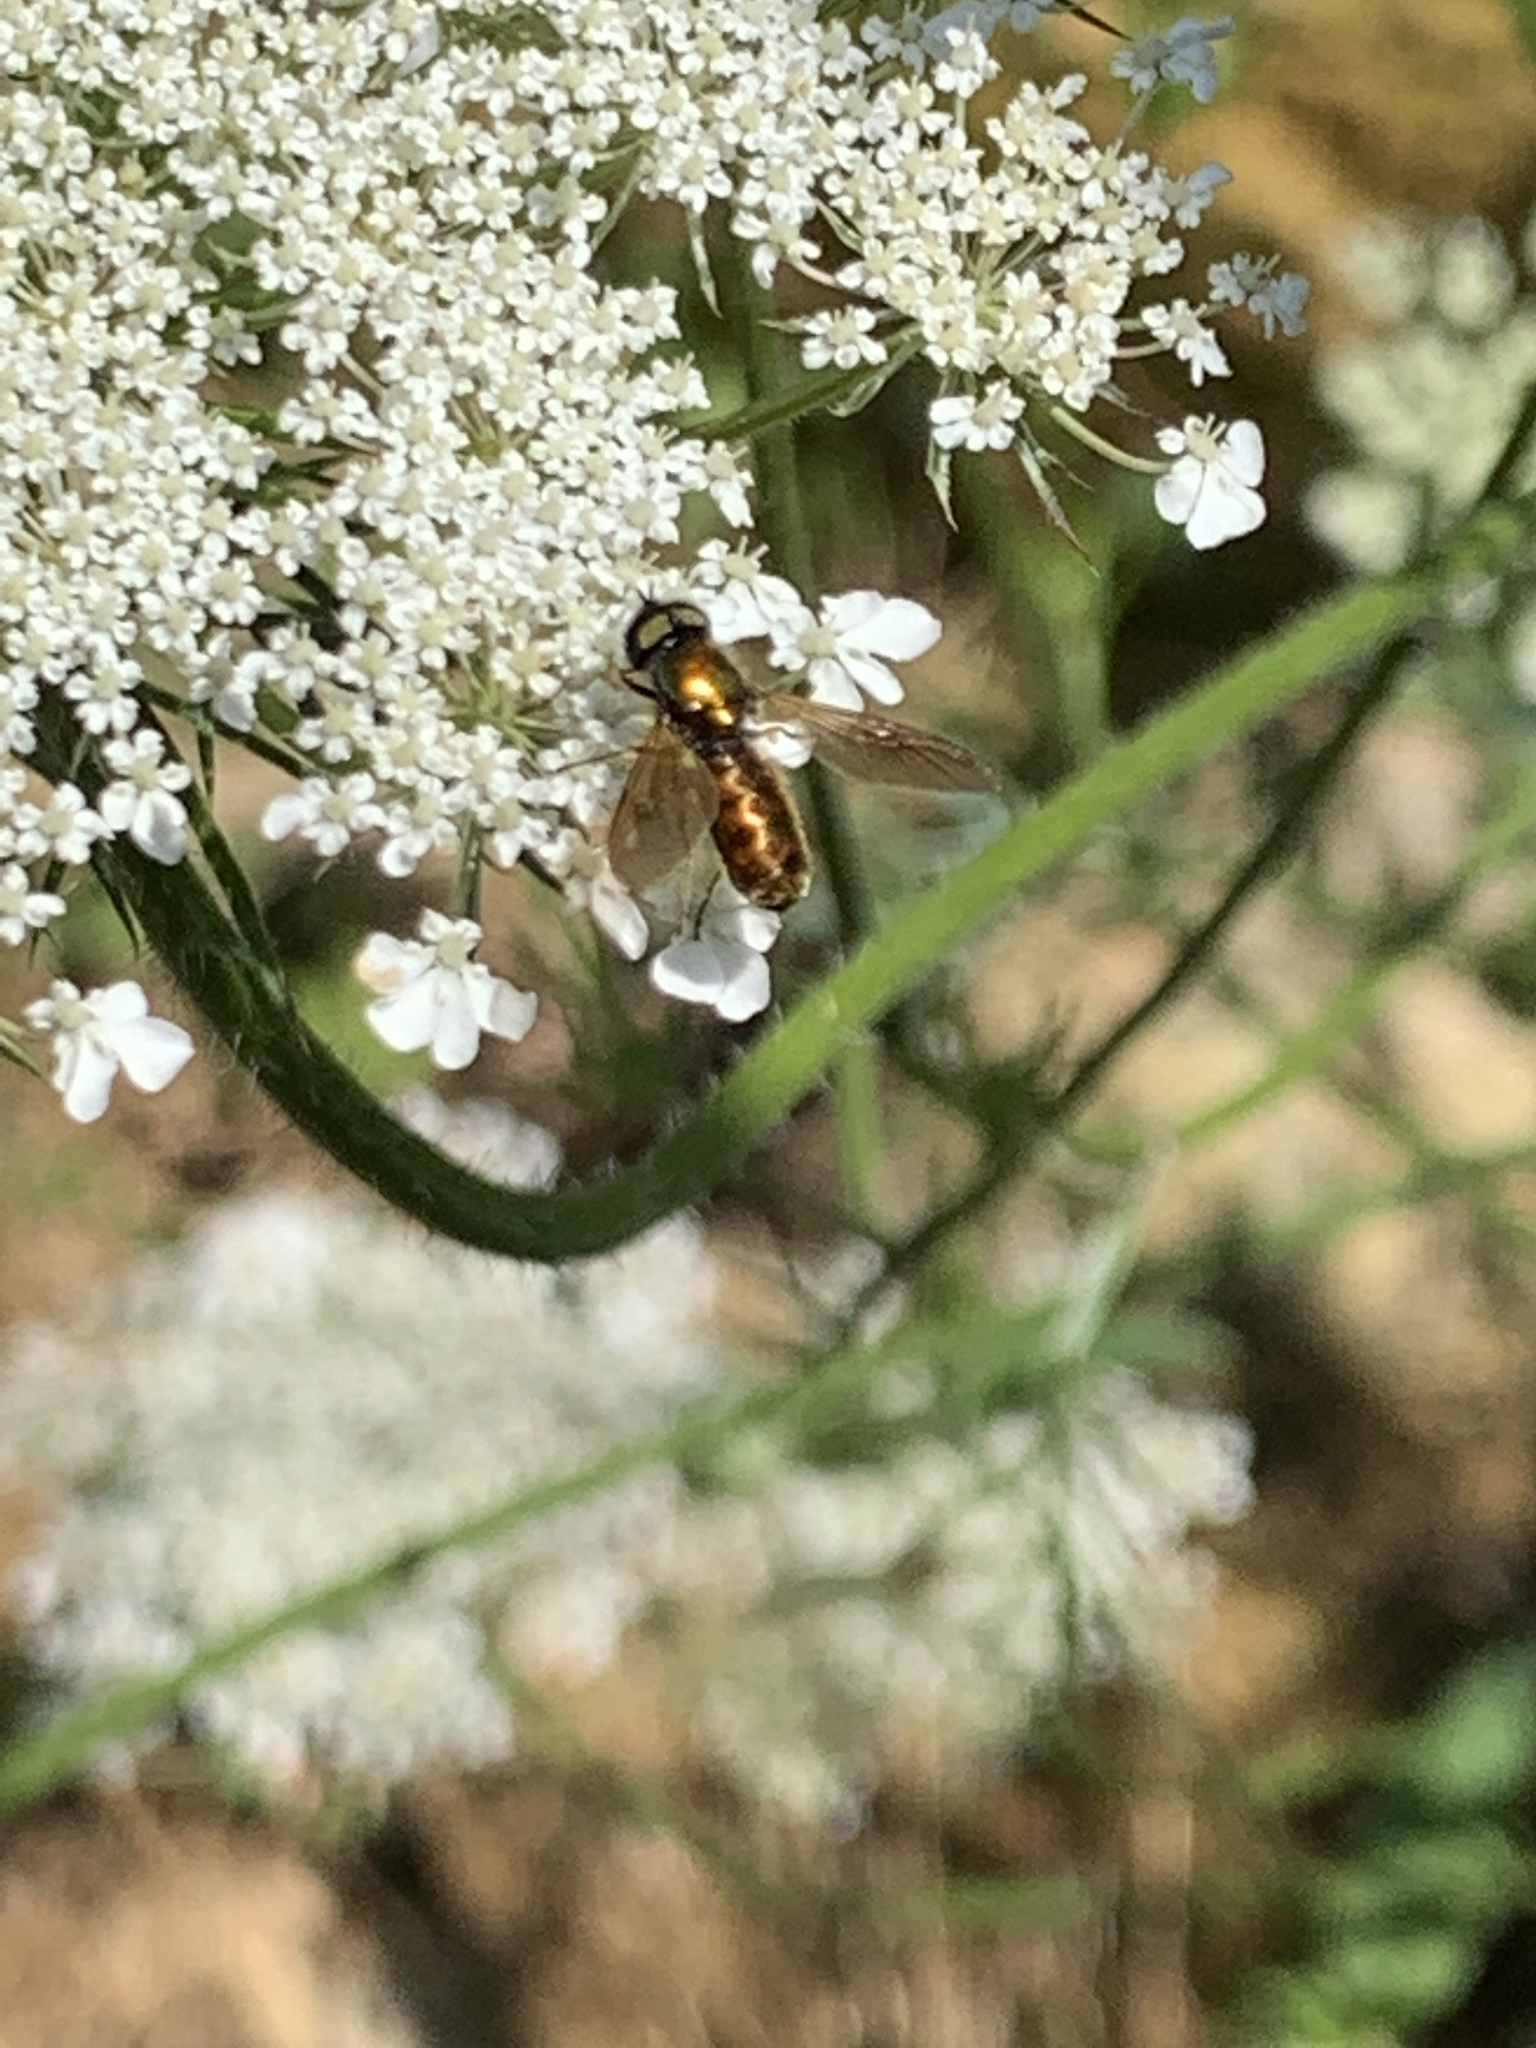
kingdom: Animalia
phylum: Arthropoda
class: Insecta
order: Diptera
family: Stratiomyidae
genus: Chloromyia
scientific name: Chloromyia formosa
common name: Soldier fly
